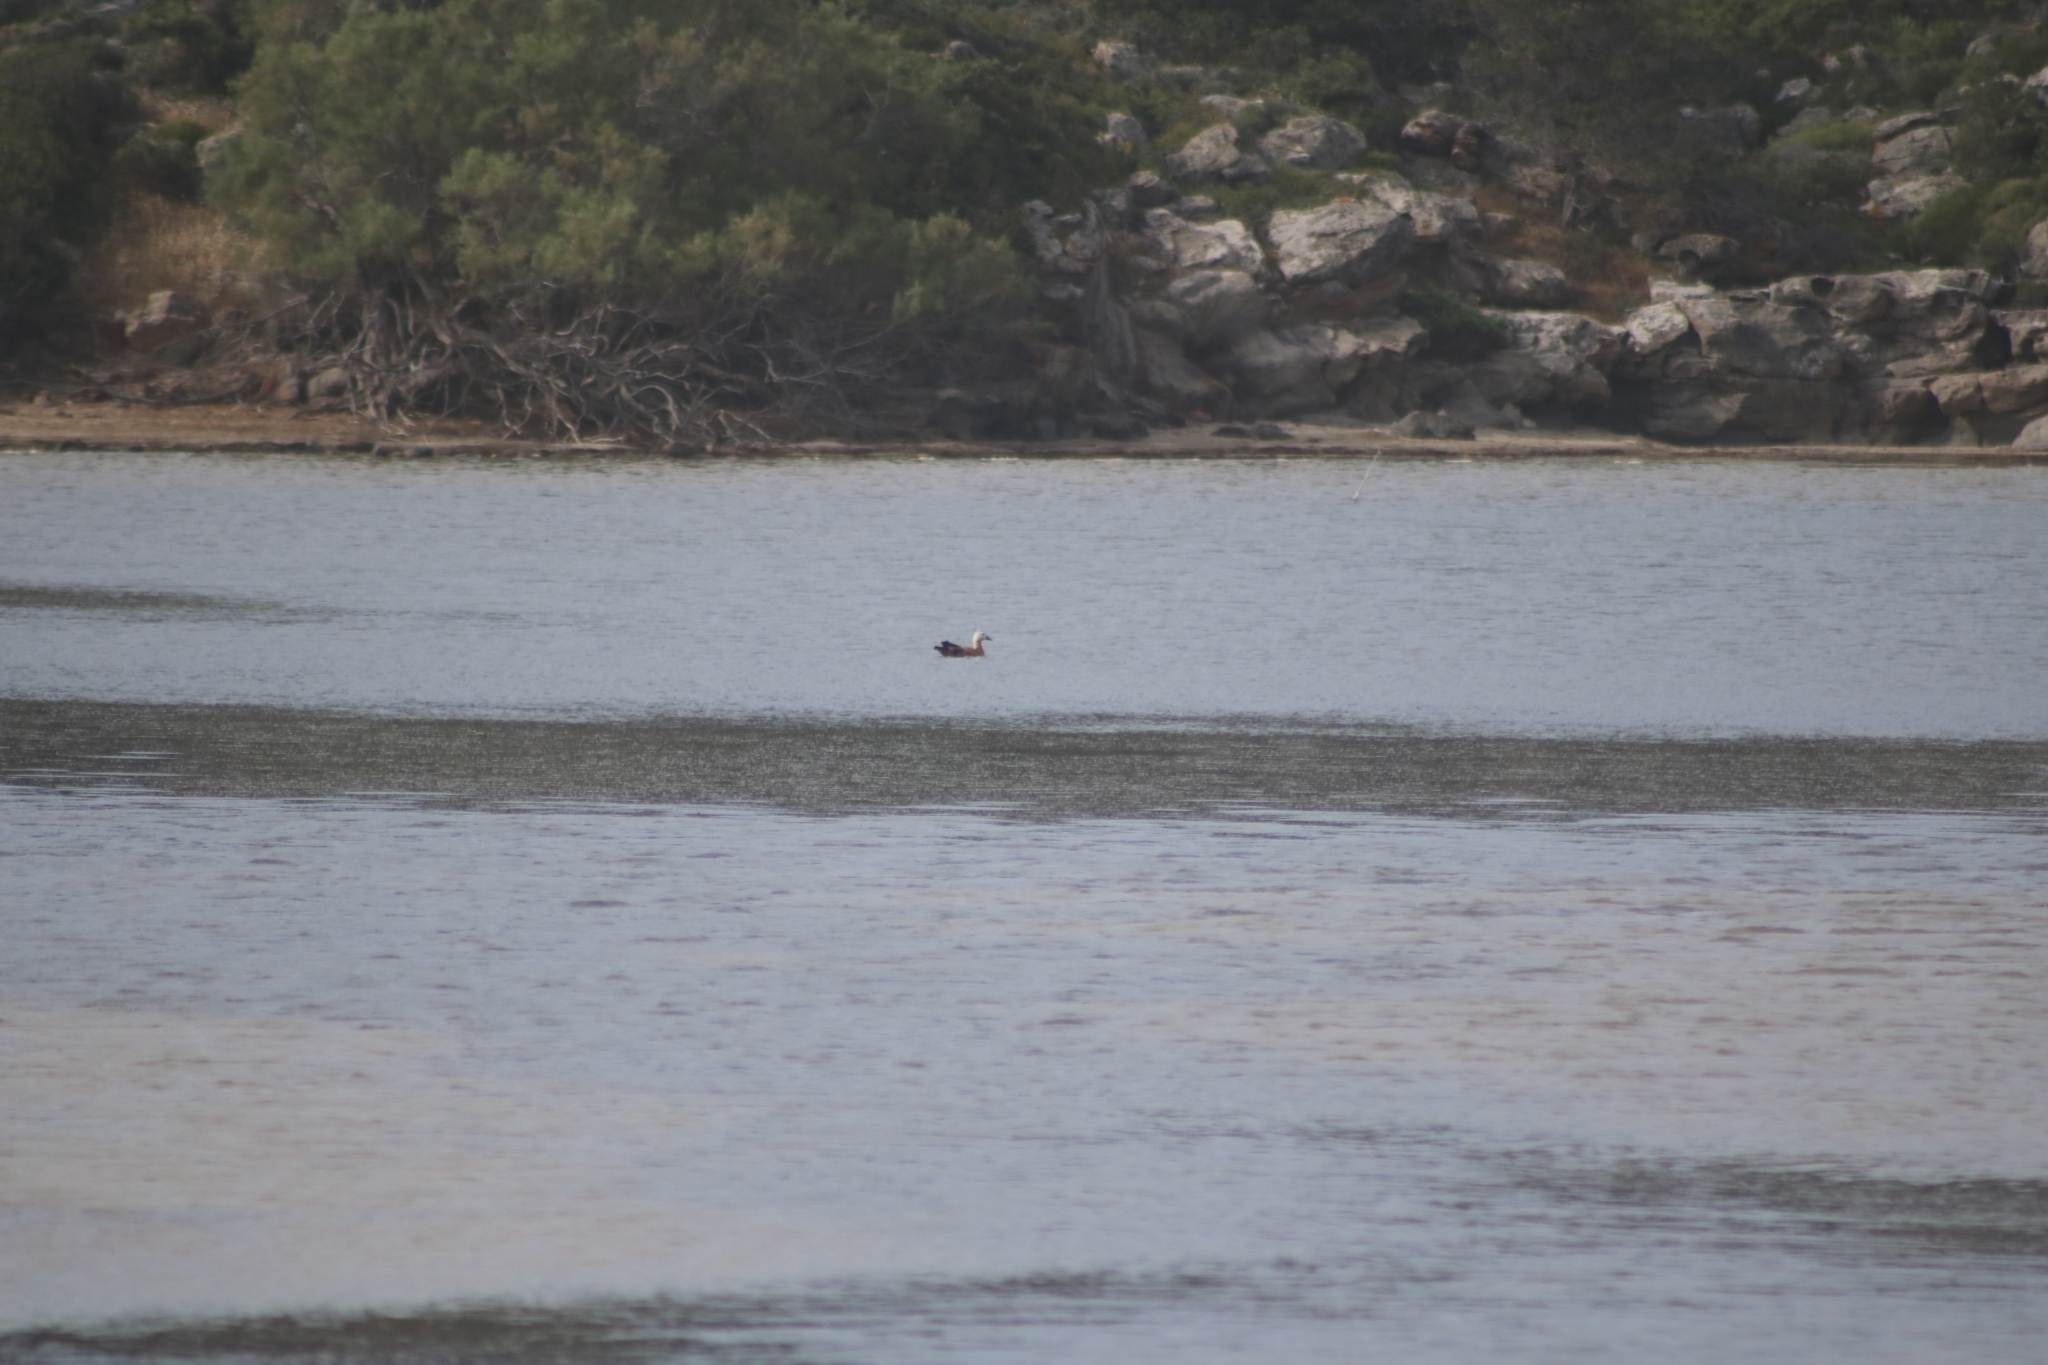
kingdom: Animalia
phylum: Chordata
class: Aves
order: Anseriformes
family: Anatidae
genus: Tadorna
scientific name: Tadorna ferruginea
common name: Ruddy shelduck
